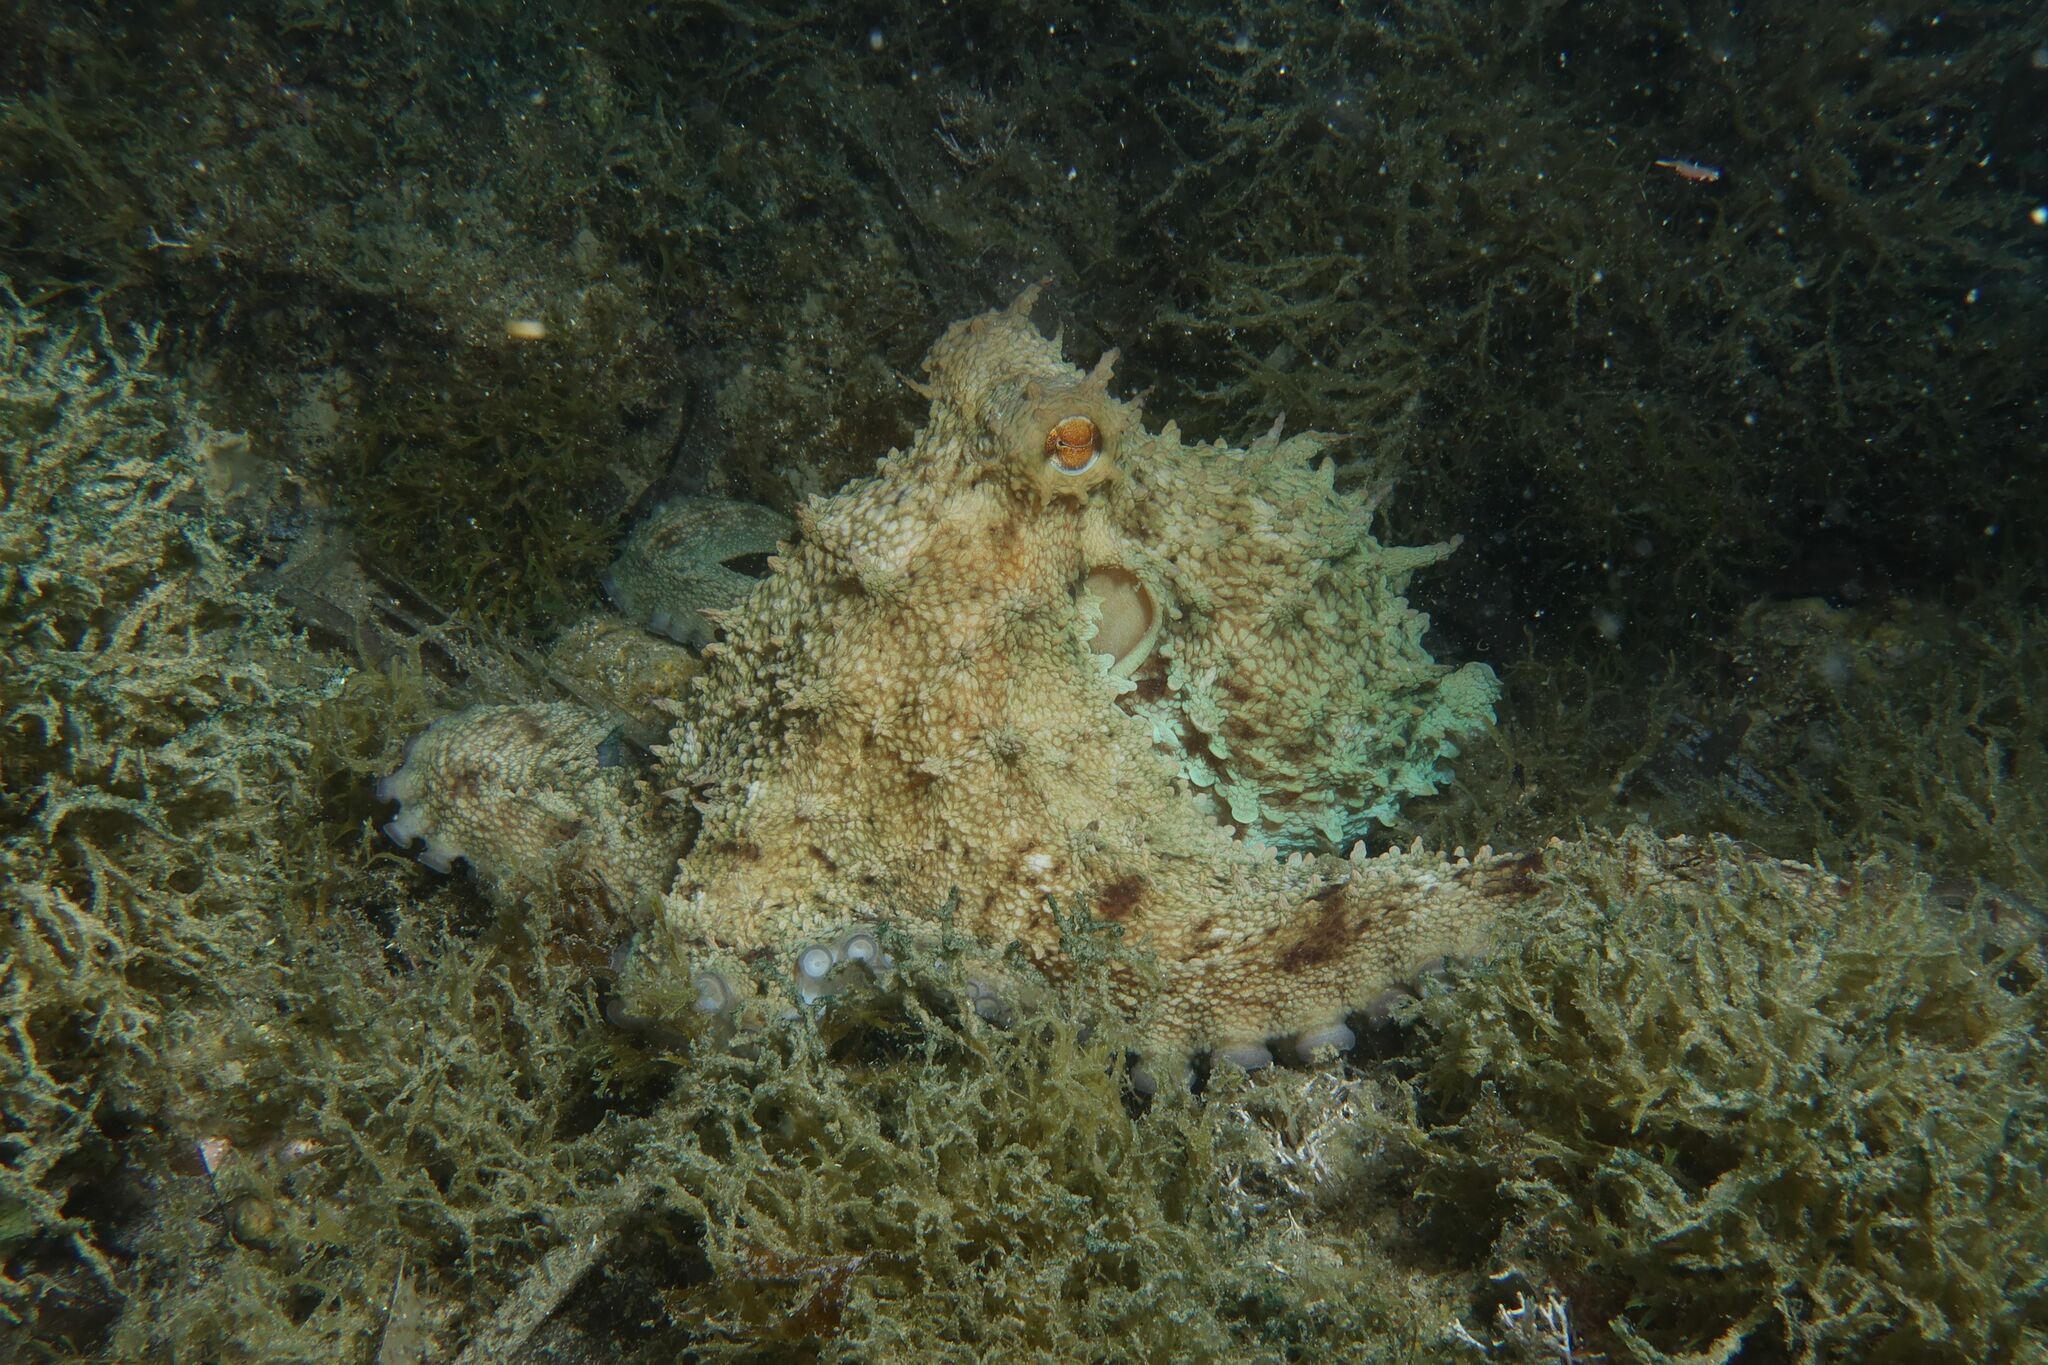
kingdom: Animalia
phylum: Mollusca
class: Cephalopoda
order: Octopoda
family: Octopodidae
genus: Octopus
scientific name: Octopus vulgaris
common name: Common octopus
